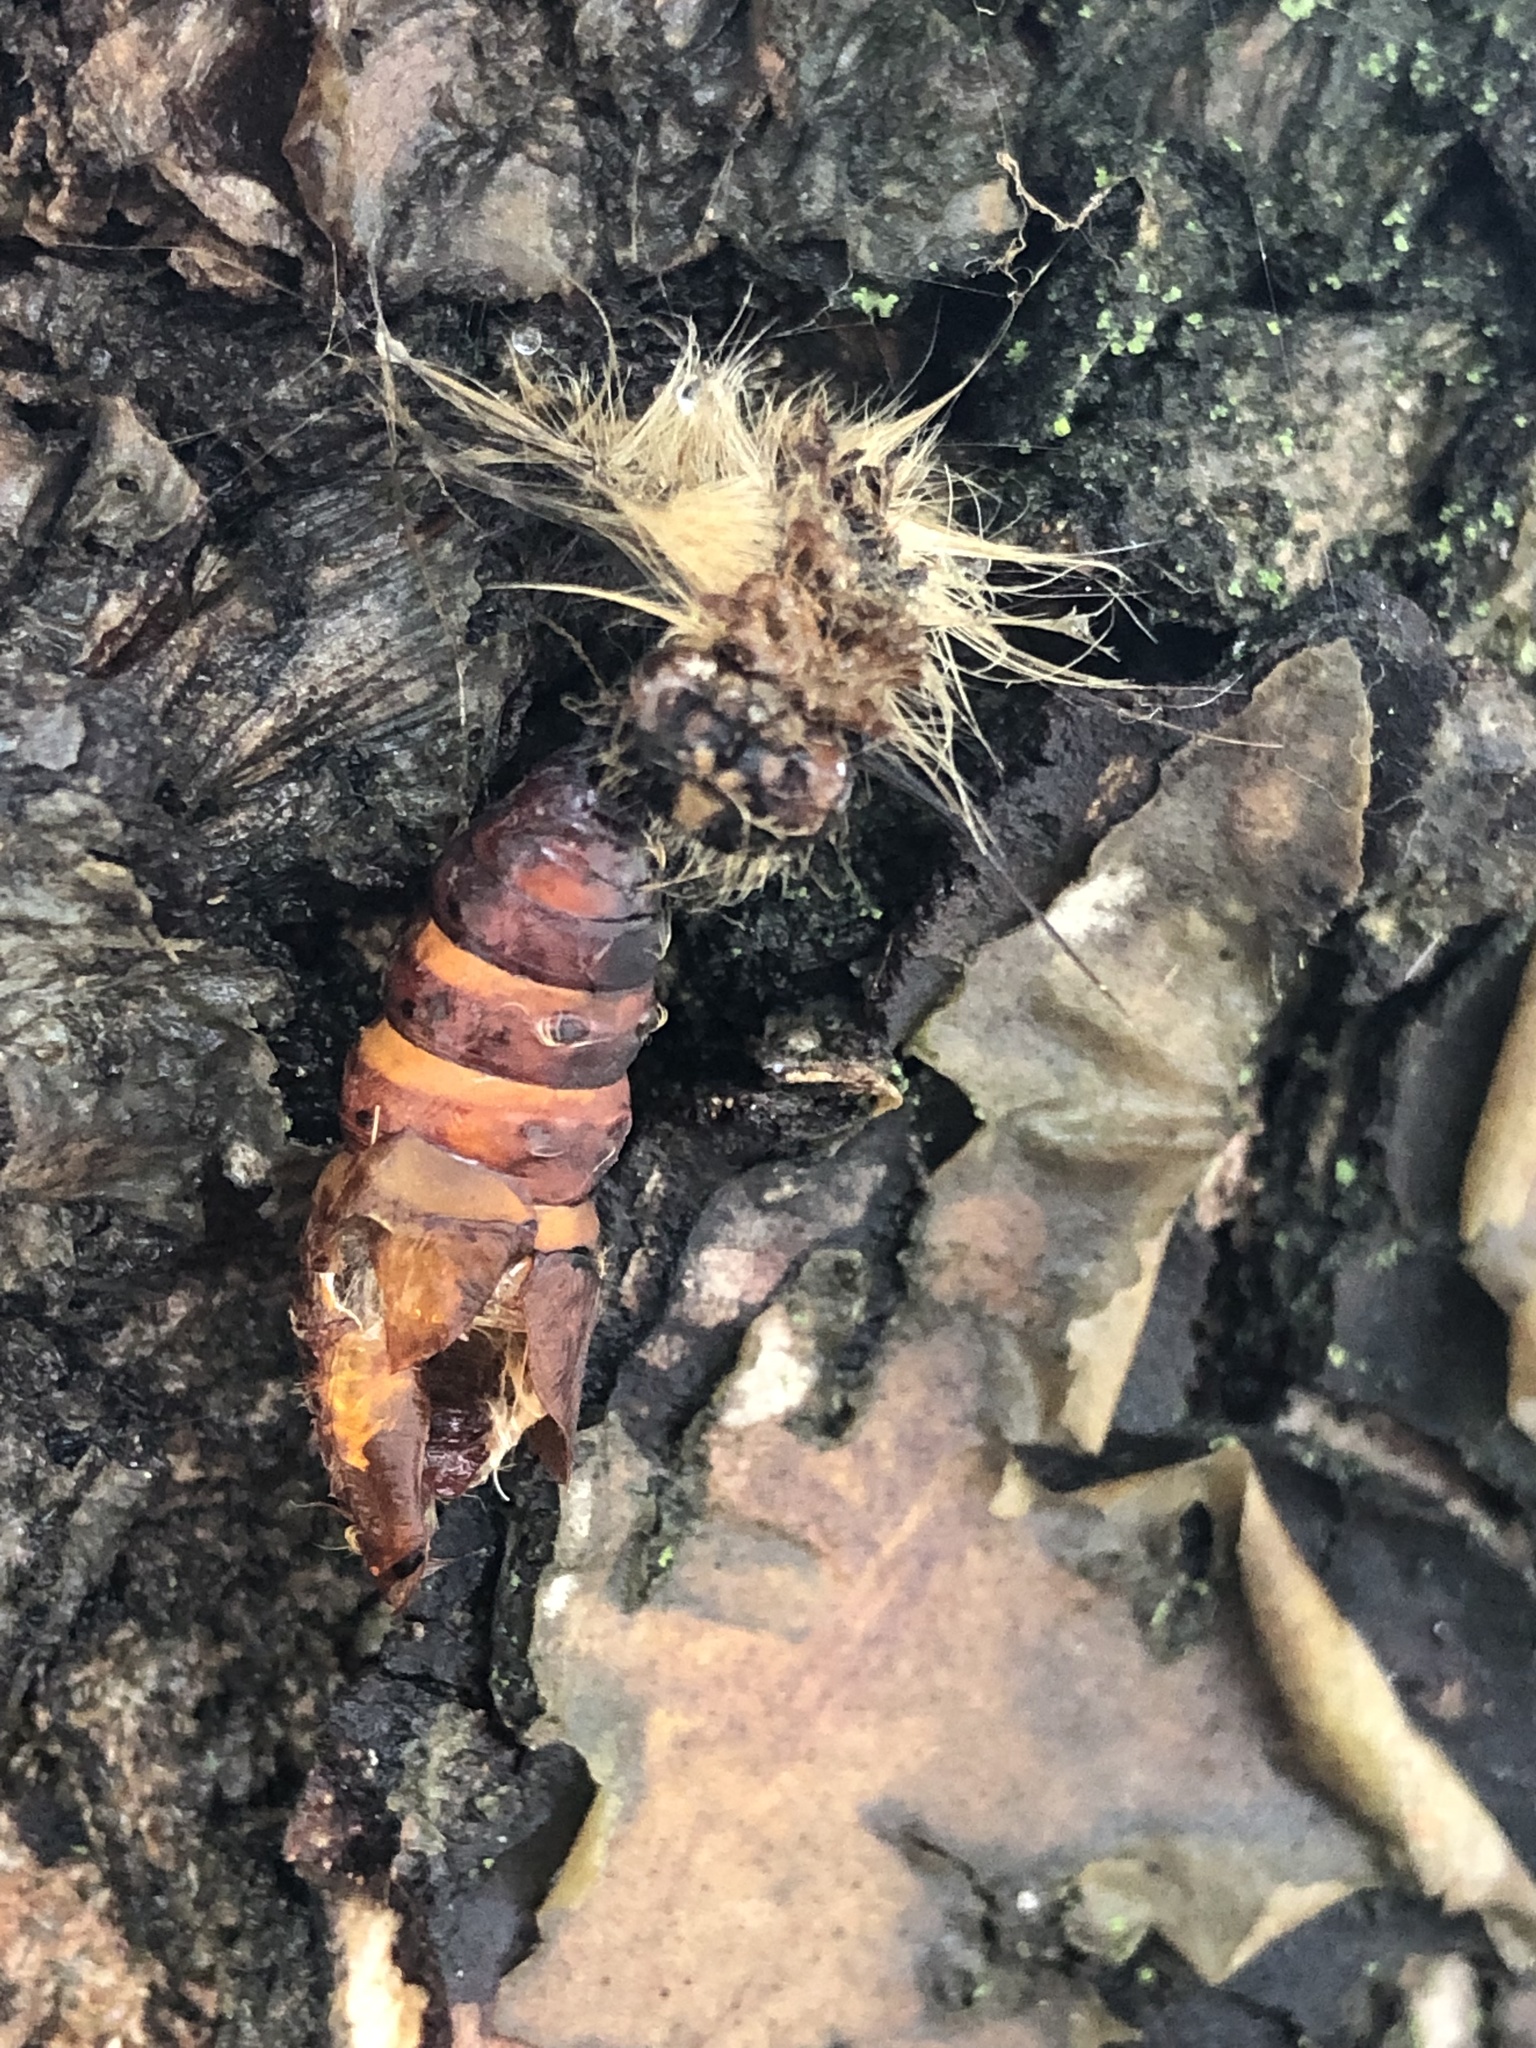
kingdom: Animalia
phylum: Arthropoda
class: Insecta
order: Lepidoptera
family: Erebidae
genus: Lymantria
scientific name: Lymantria dispar
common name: Gypsy moth
